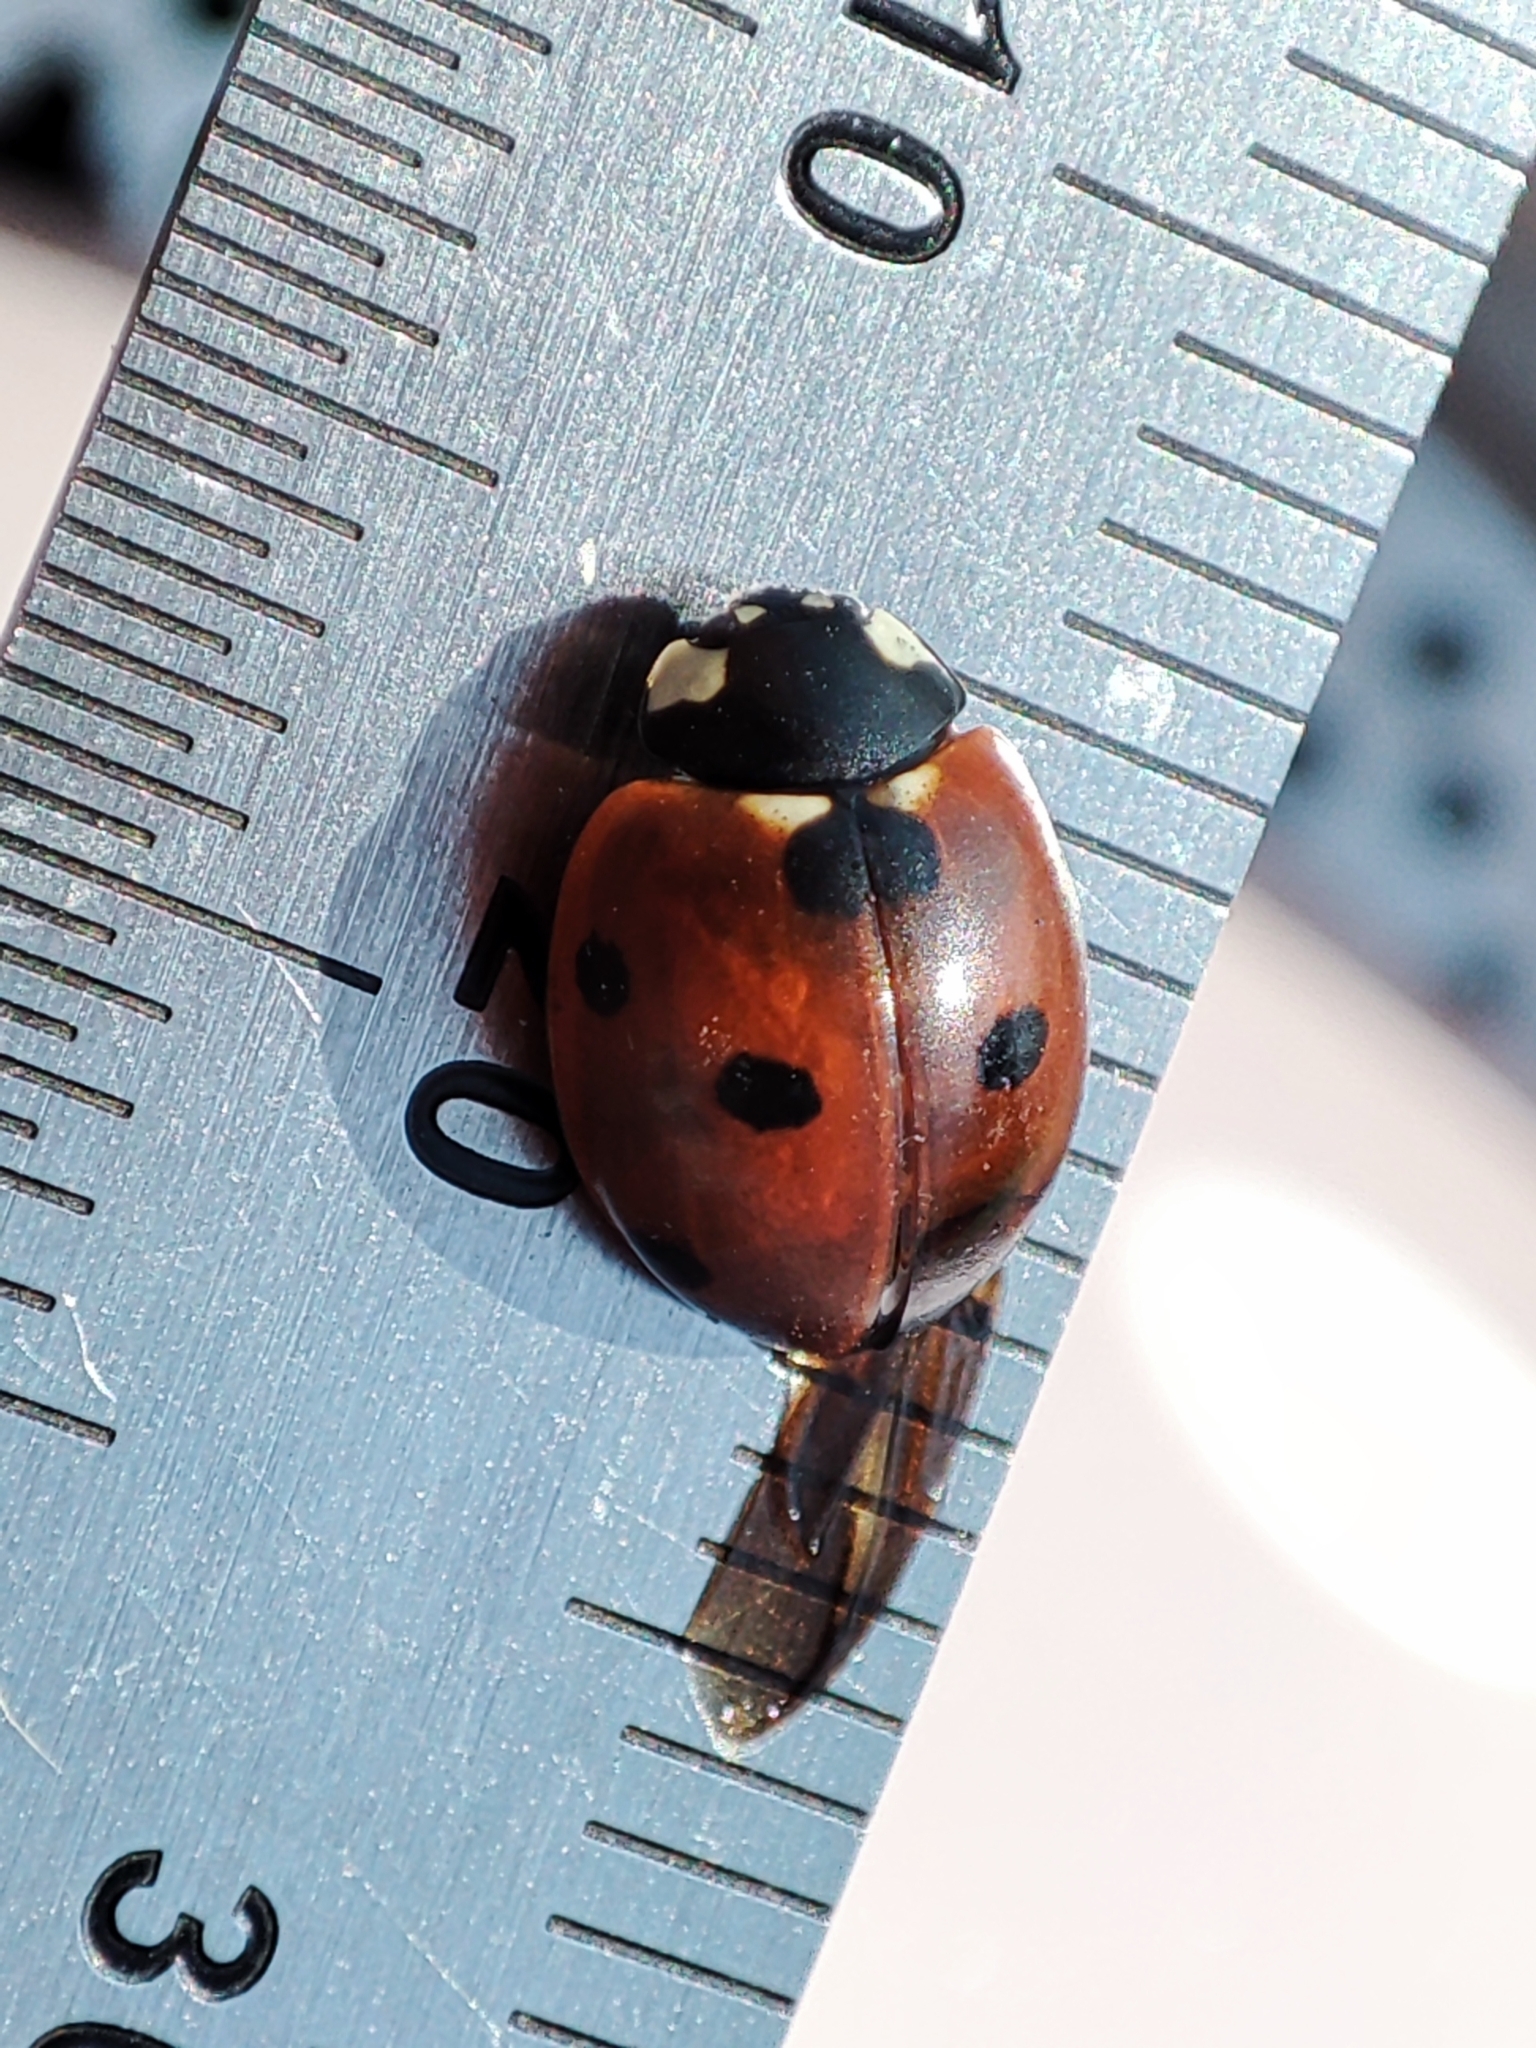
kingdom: Animalia
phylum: Arthropoda
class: Insecta
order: Coleoptera
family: Coccinellidae
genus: Coccinella
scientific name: Coccinella septempunctata
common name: Sevenspotted lady beetle
